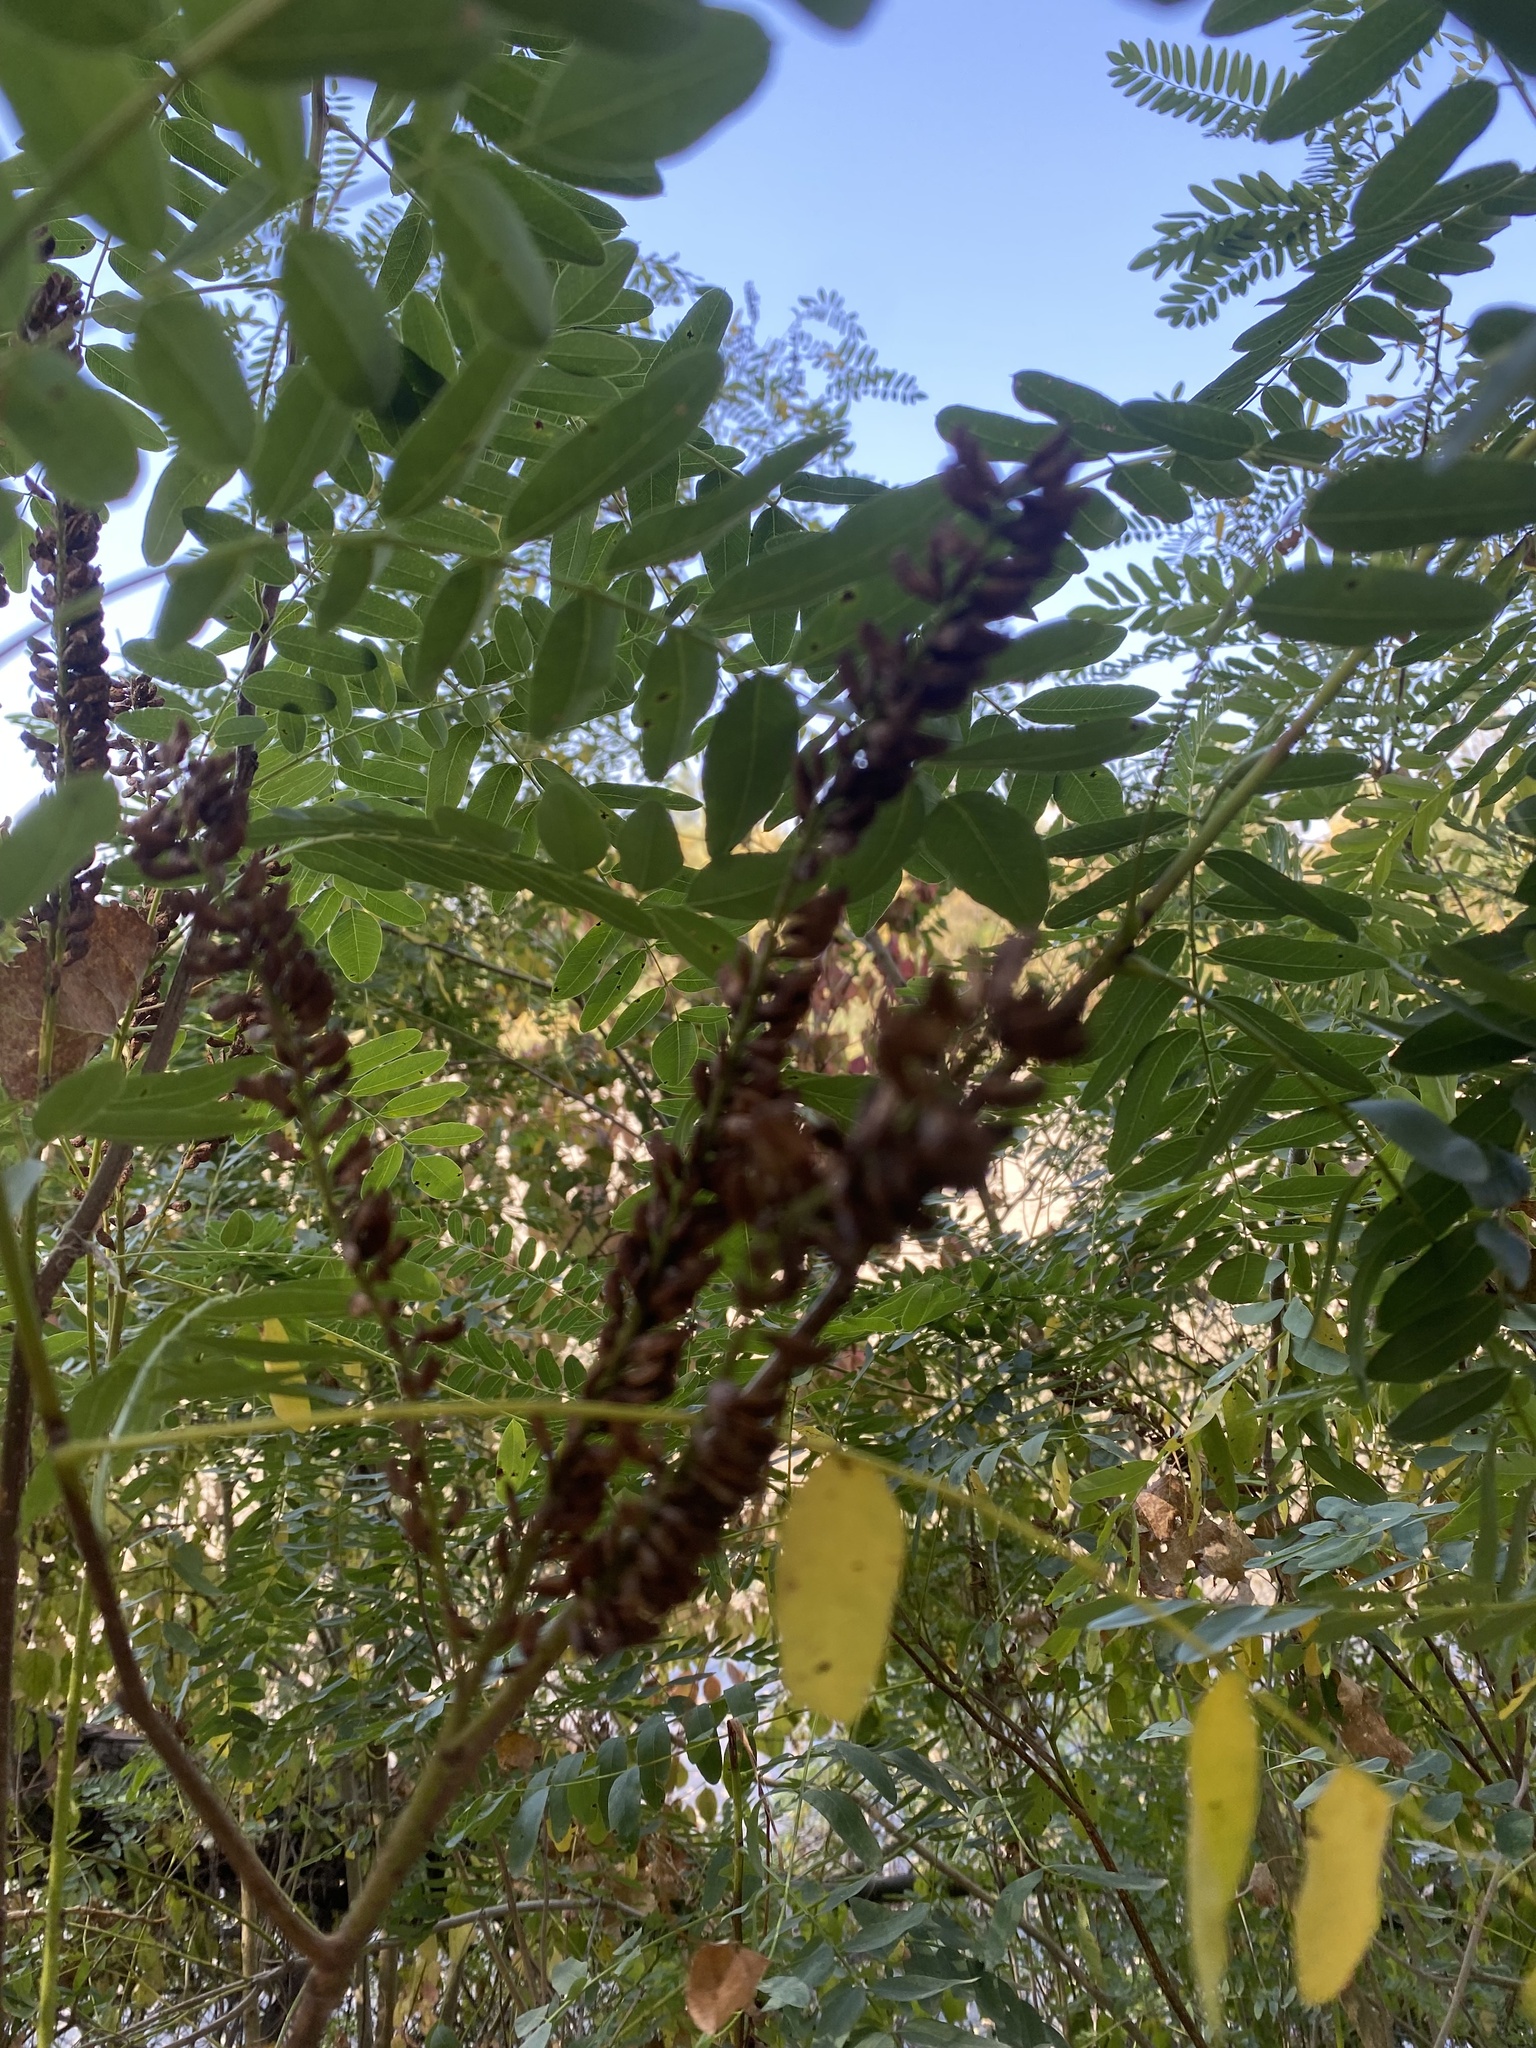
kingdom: Plantae
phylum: Tracheophyta
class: Magnoliopsida
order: Fabales
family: Fabaceae
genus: Amorpha
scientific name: Amorpha fruticosa
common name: False indigo
